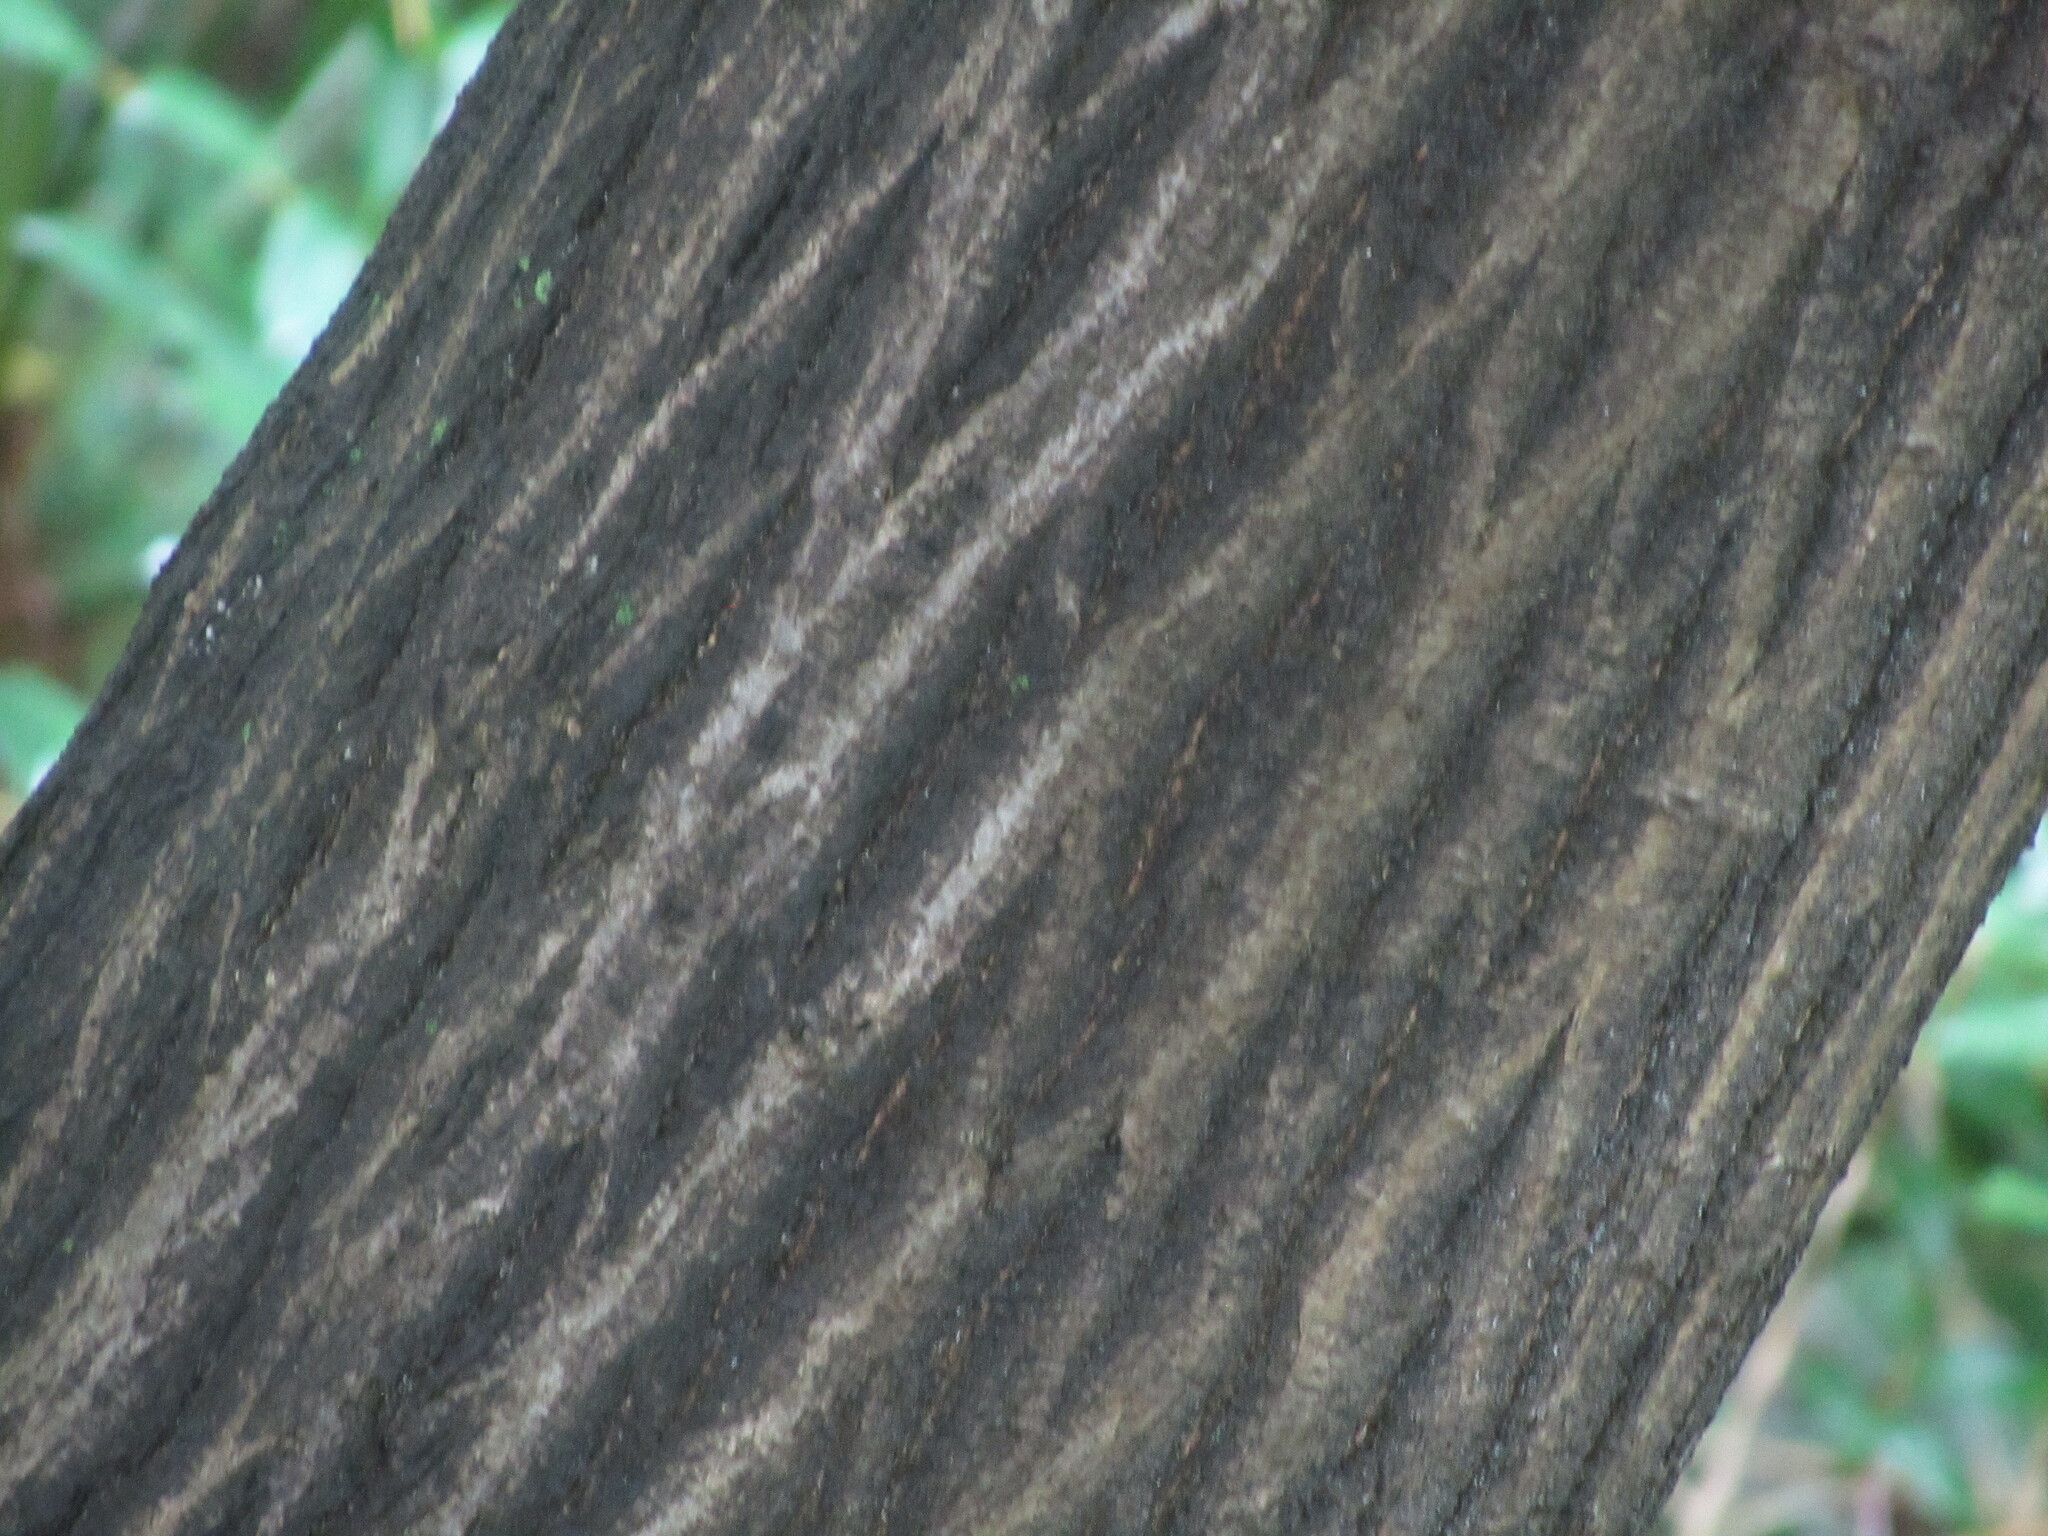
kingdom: Plantae
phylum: Tracheophyta
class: Magnoliopsida
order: Fagales
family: Betulaceae
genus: Carpinus
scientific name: Carpinus tschonoskii
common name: Asian hornbeam
